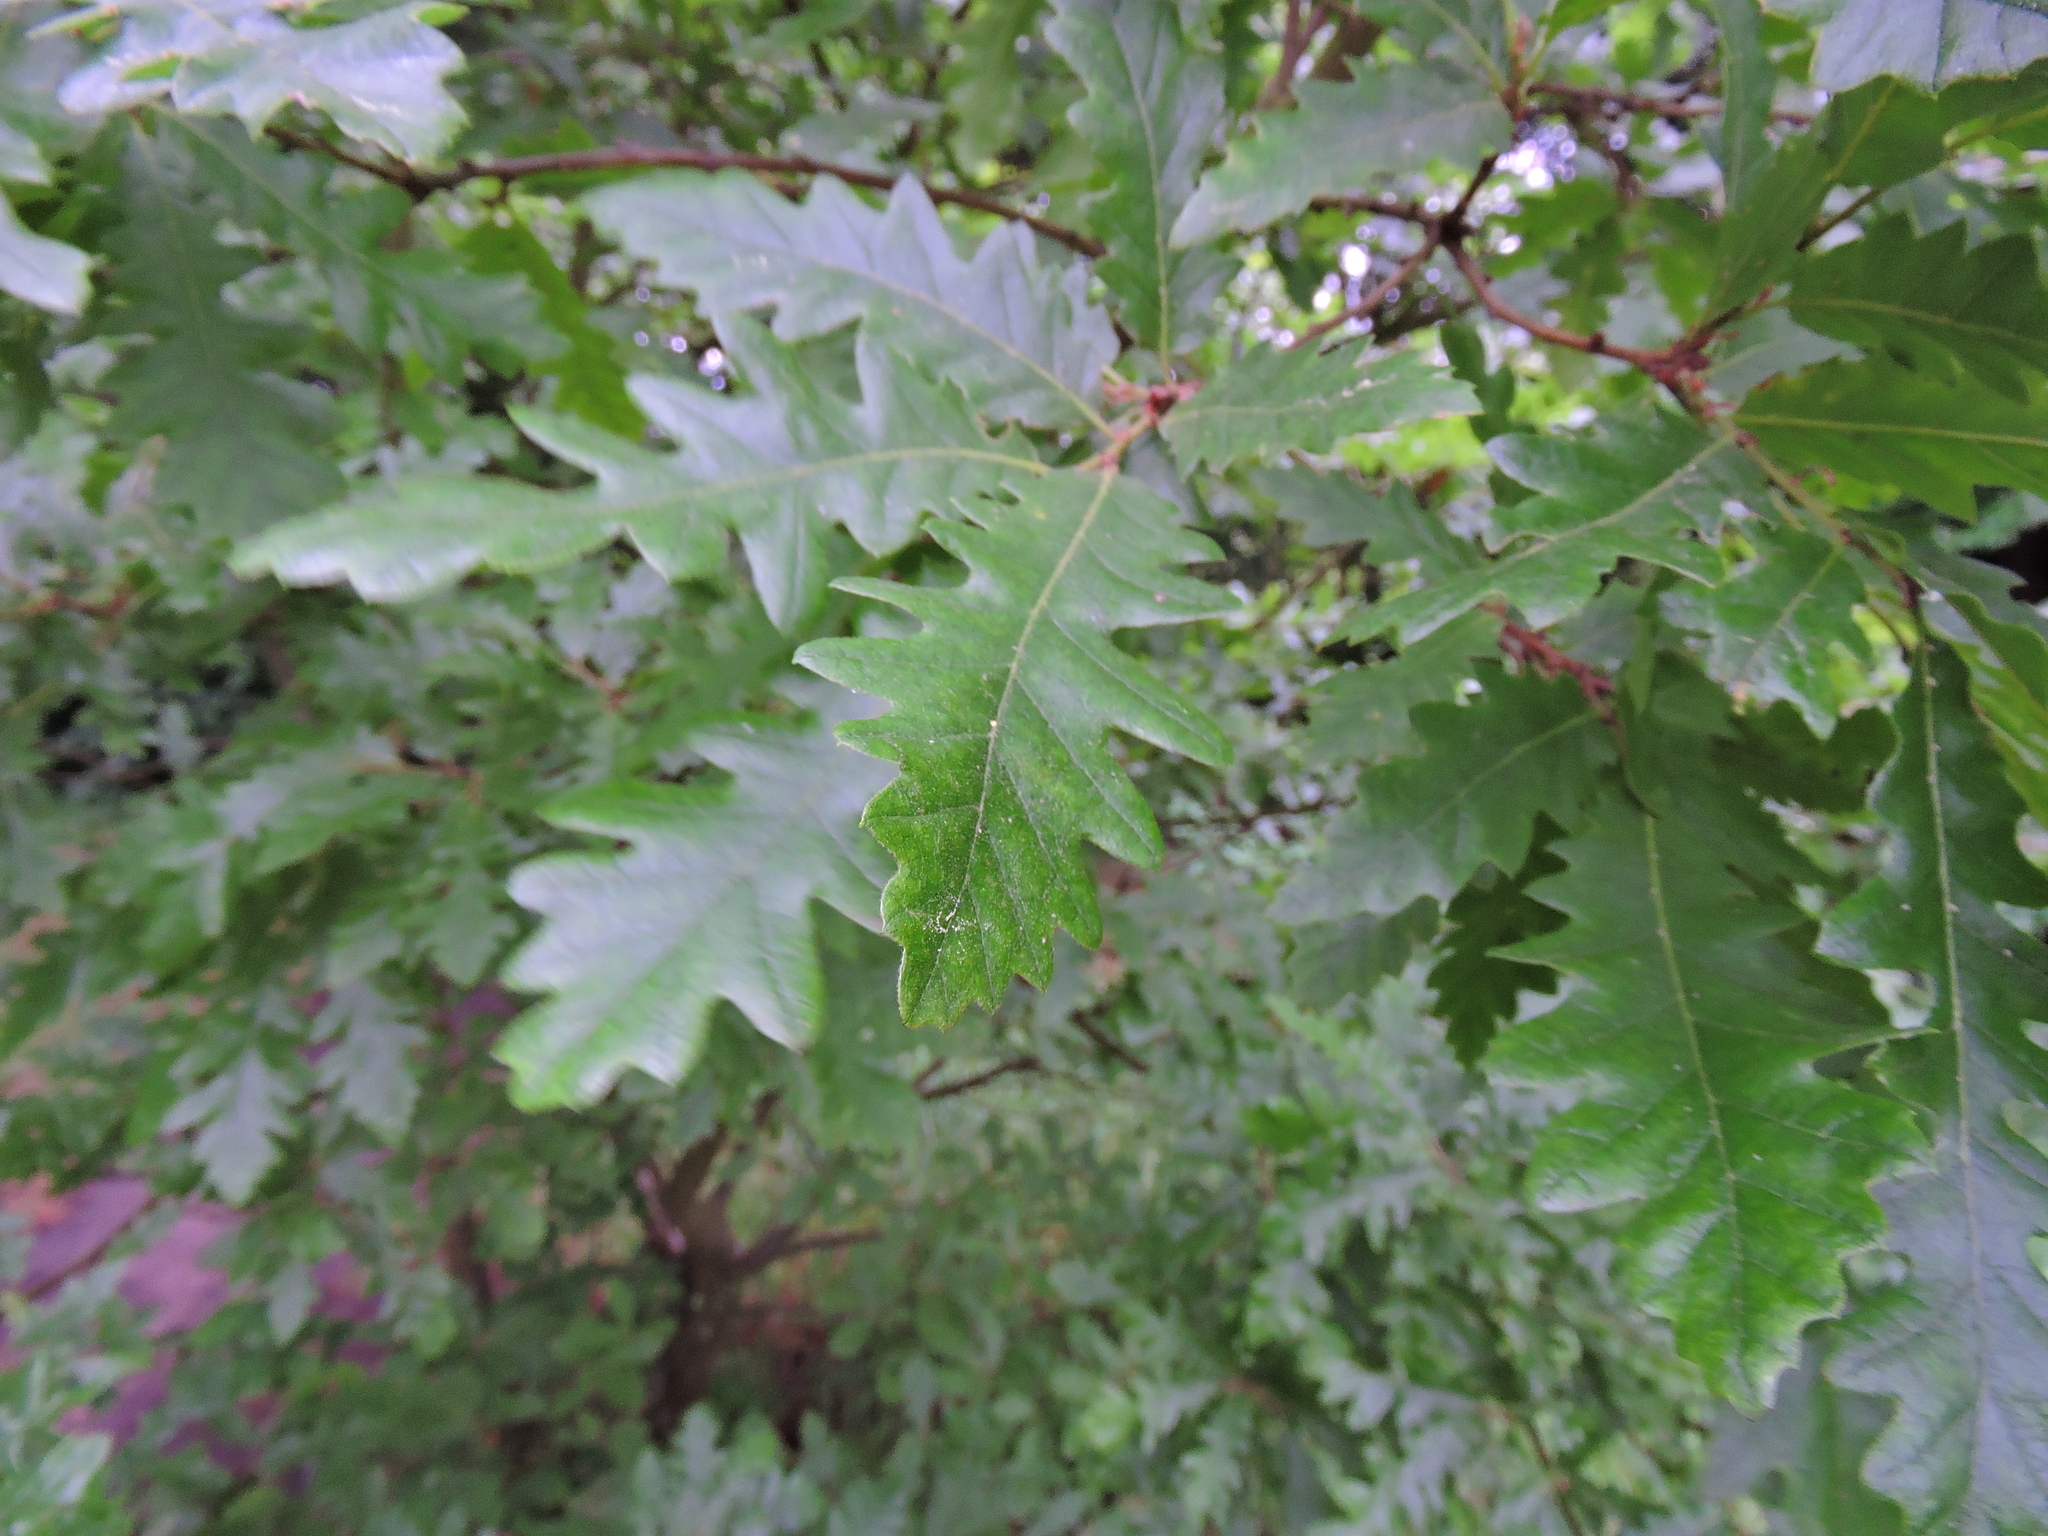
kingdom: Plantae
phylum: Tracheophyta
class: Magnoliopsida
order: Fagales
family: Fagaceae
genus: Quercus
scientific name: Quercus cerris
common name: Turkey oak
